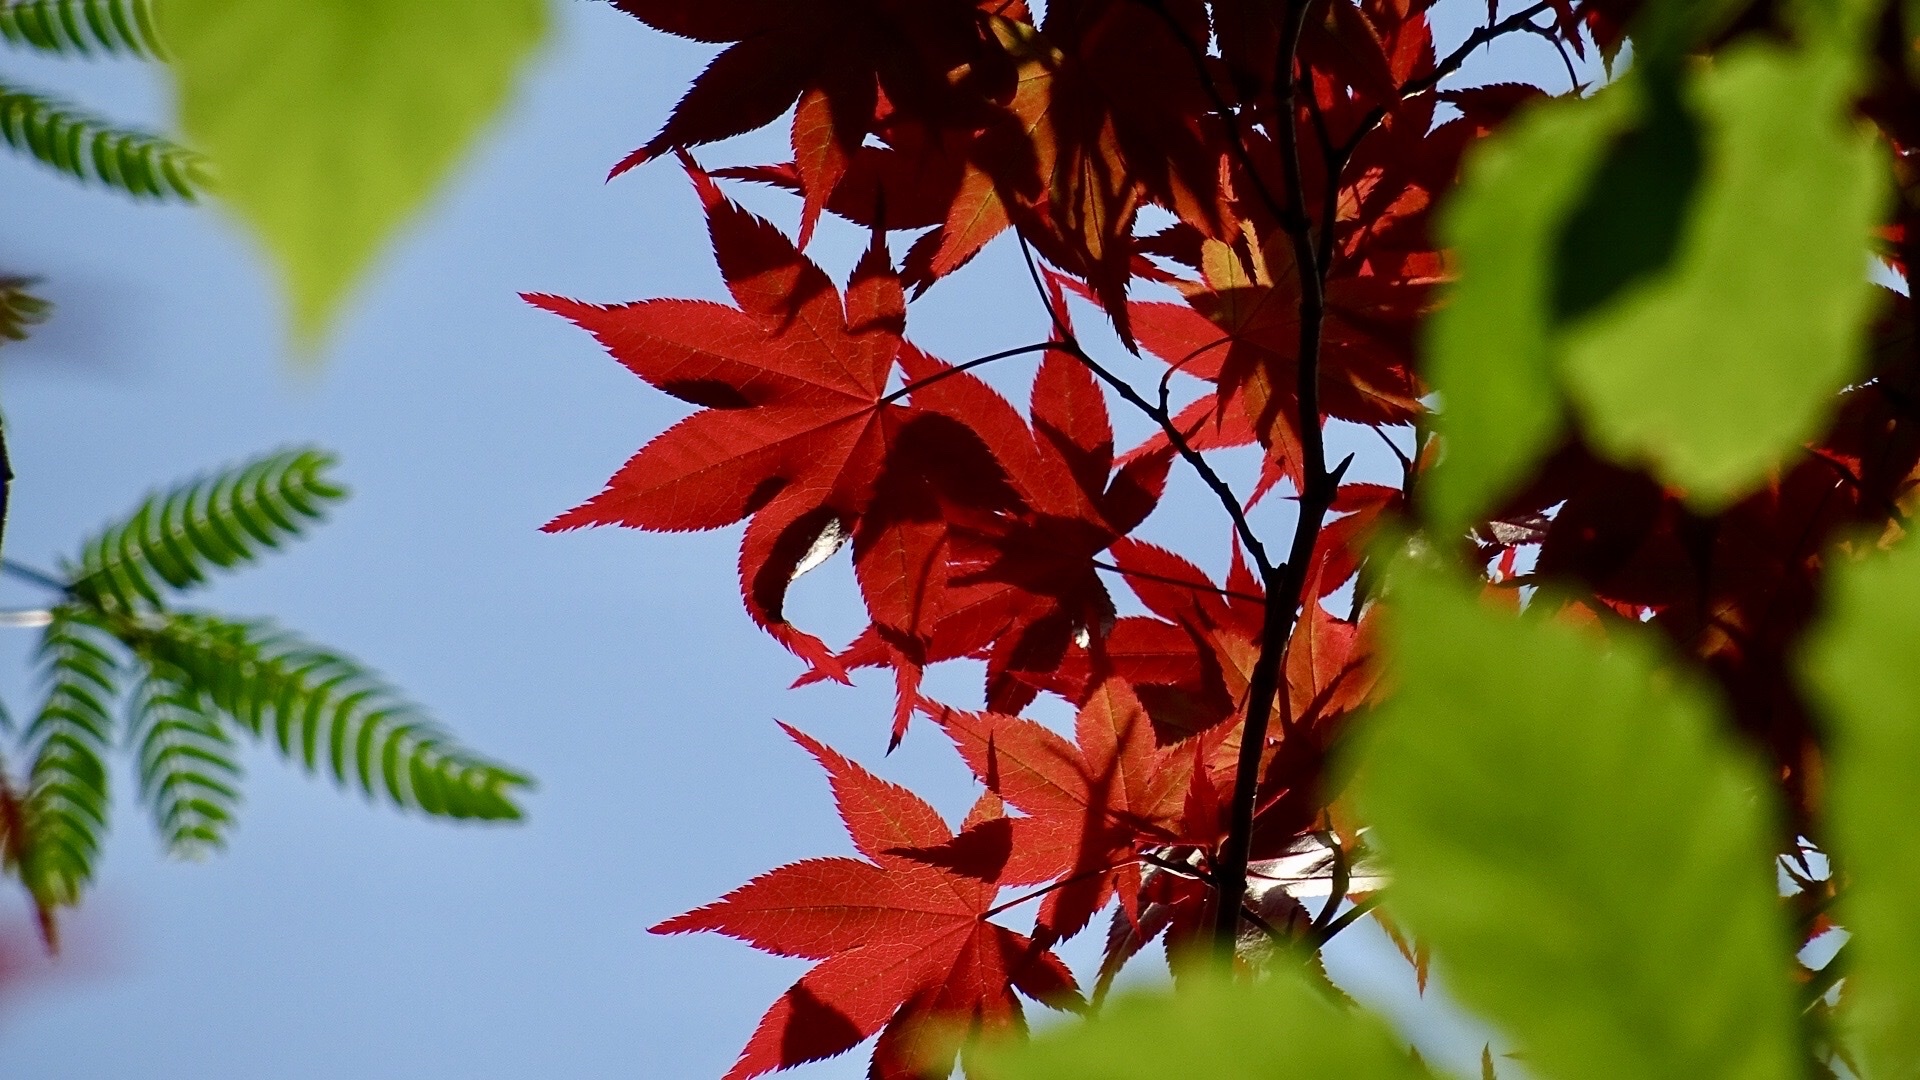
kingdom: Plantae
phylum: Tracheophyta
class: Magnoliopsida
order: Sapindales
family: Sapindaceae
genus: Acer
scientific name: Acer palmatum
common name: Japanese maple
